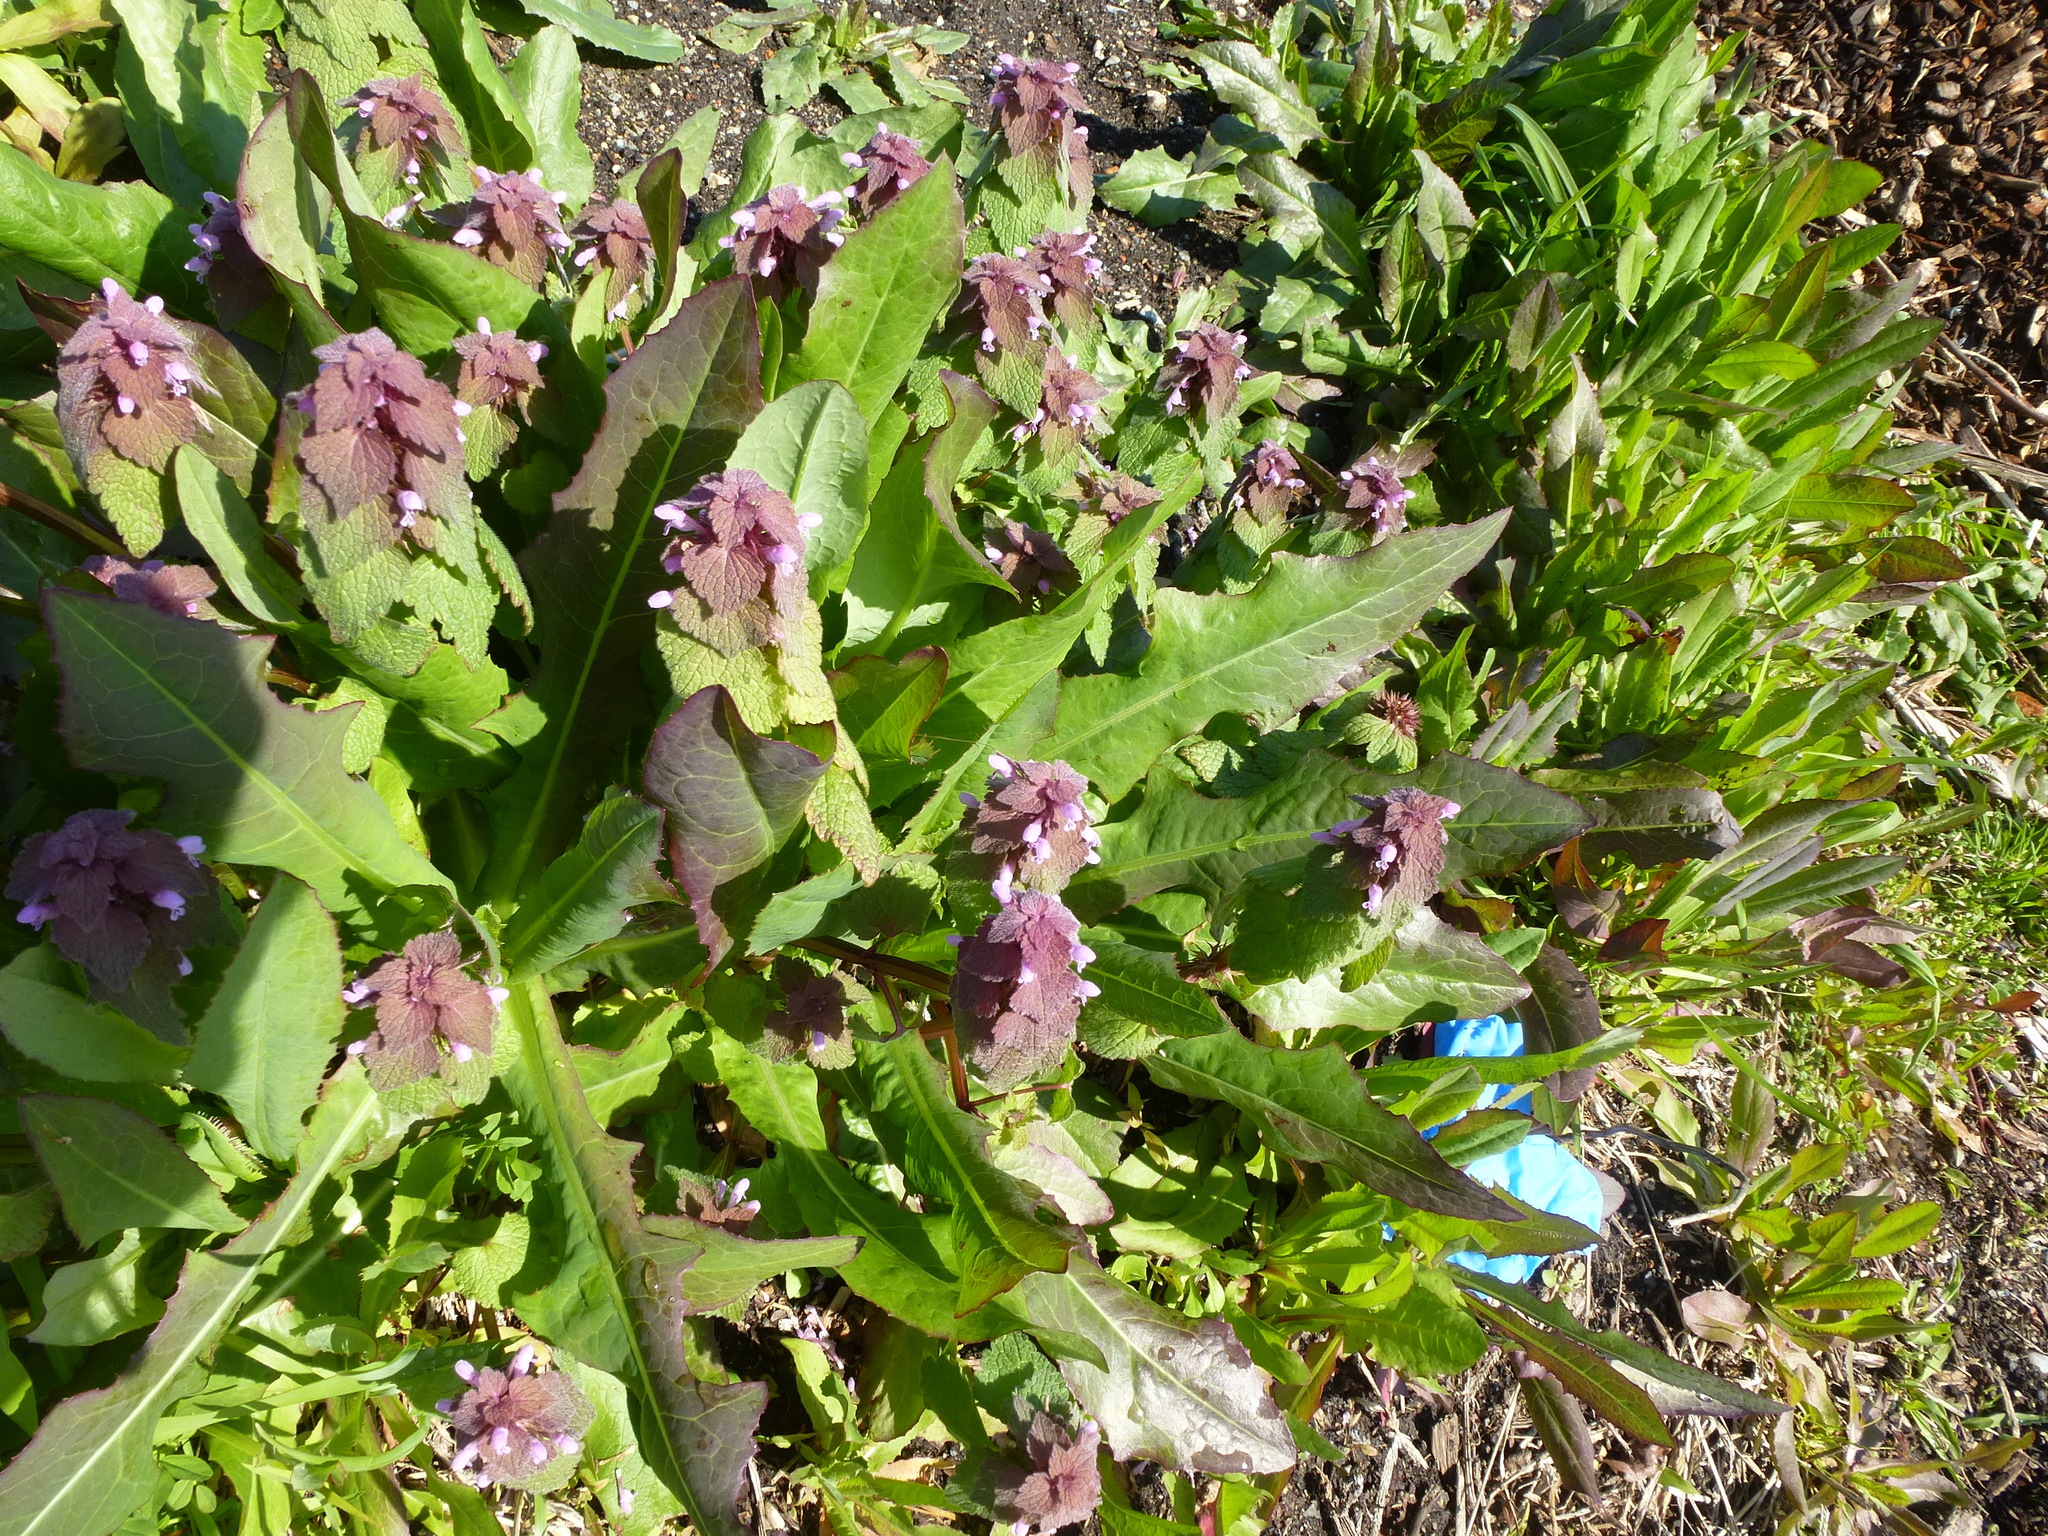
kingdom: Plantae
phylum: Tracheophyta
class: Magnoliopsida
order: Lamiales
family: Lamiaceae
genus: Lamium
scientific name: Lamium purpureum
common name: Red dead-nettle
